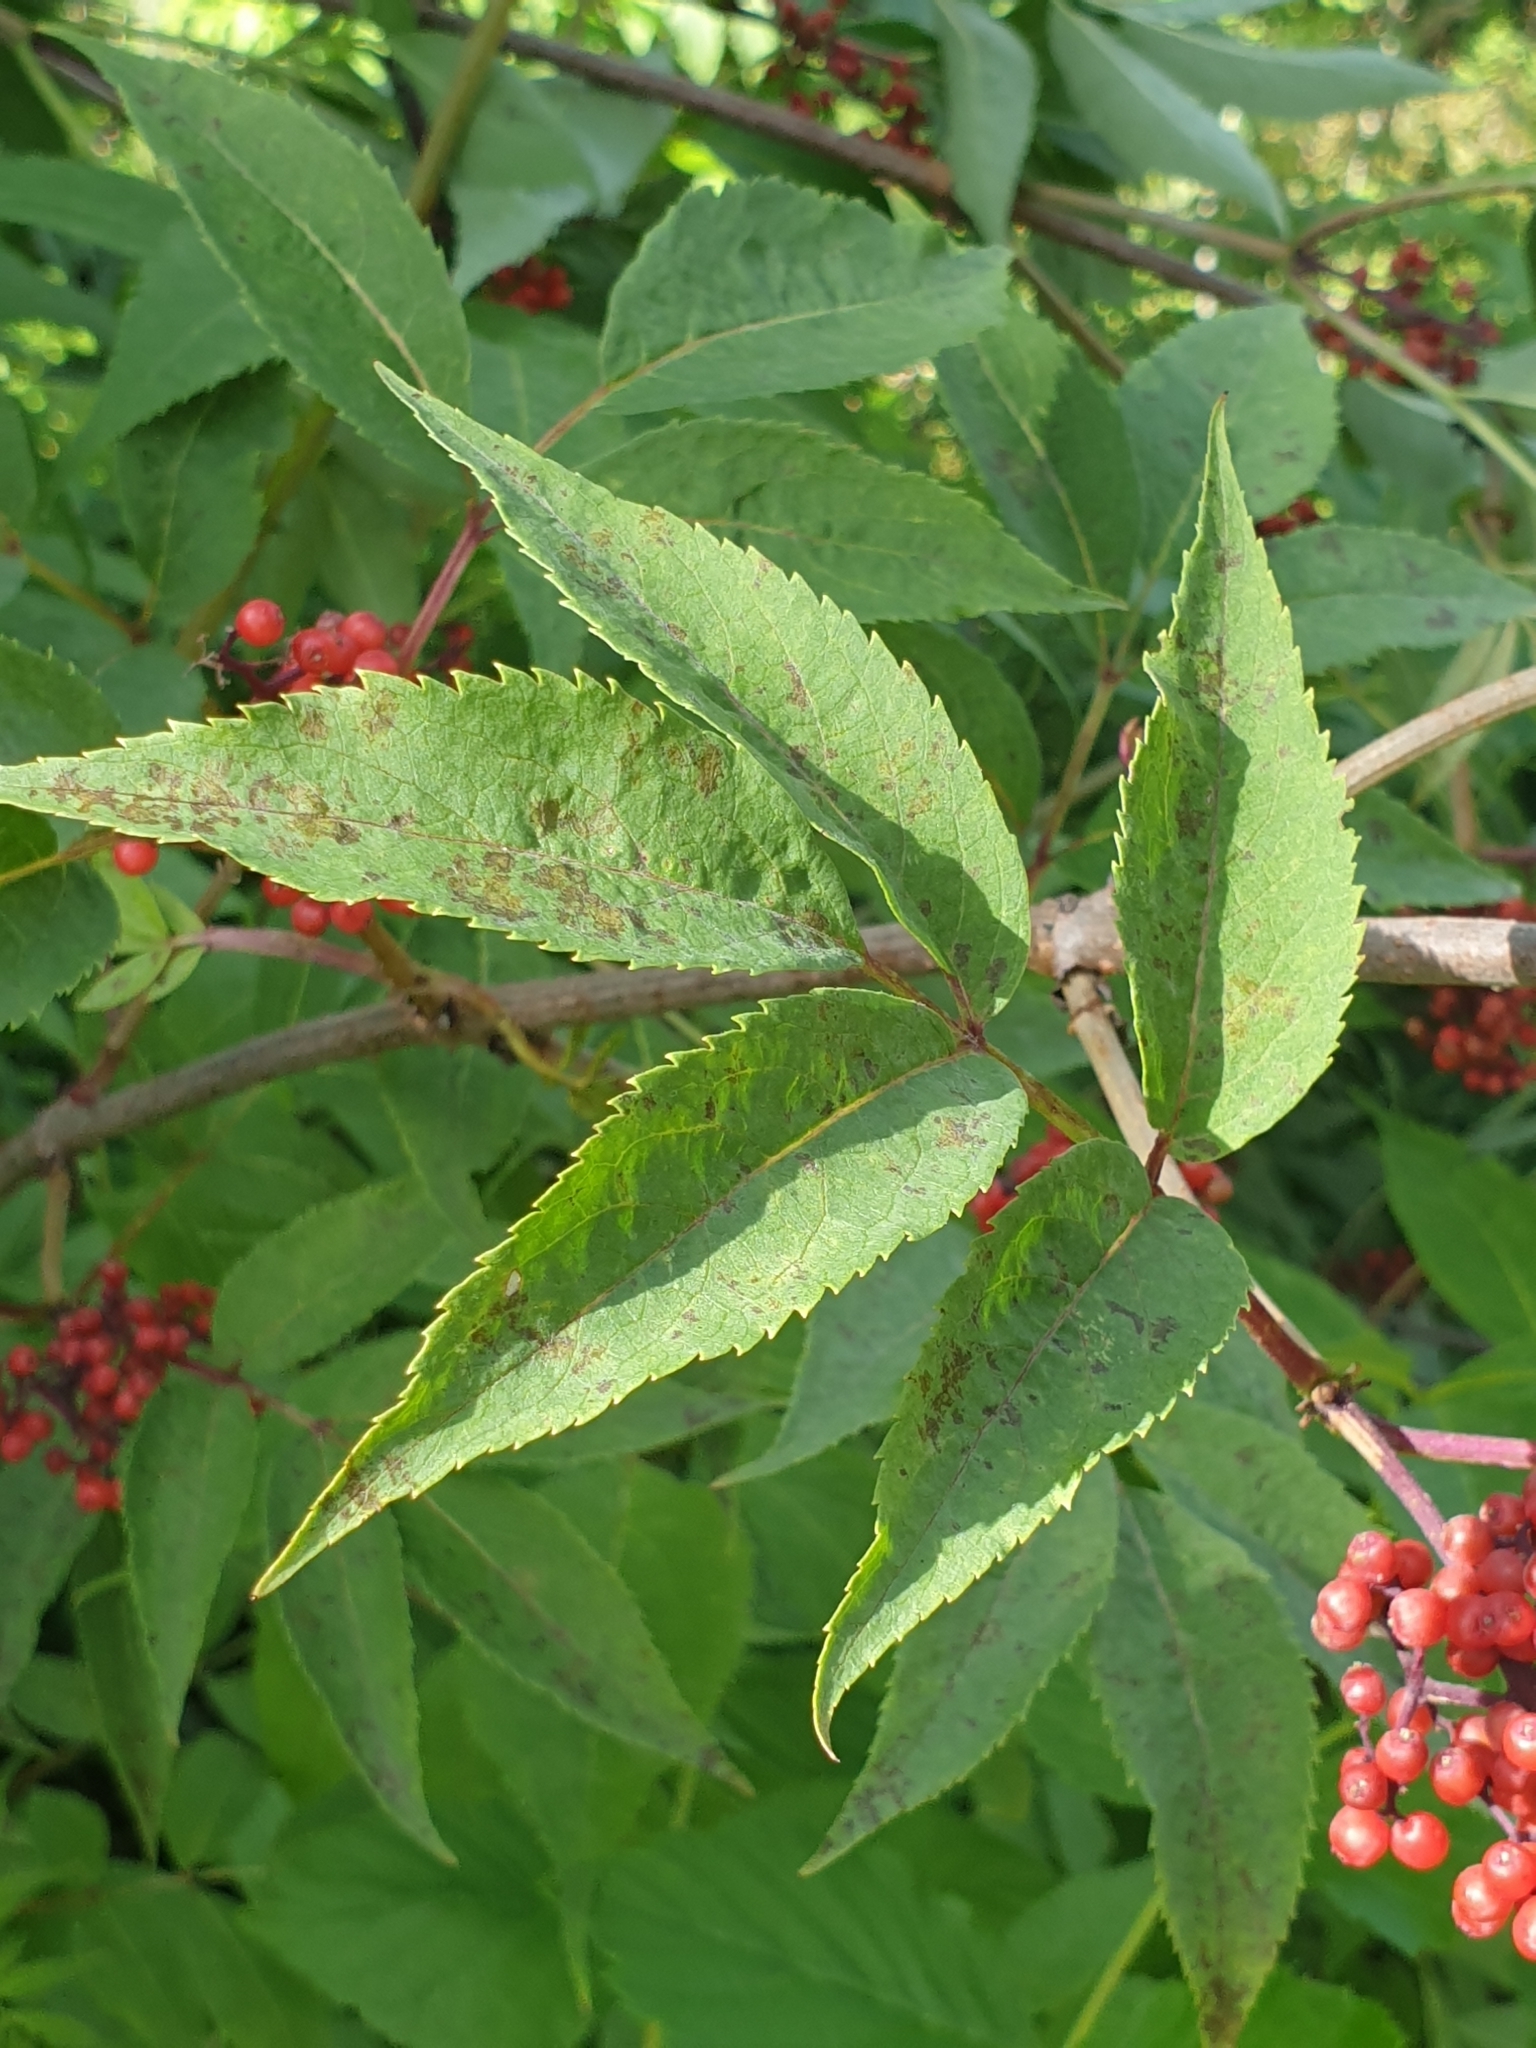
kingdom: Plantae
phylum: Tracheophyta
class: Magnoliopsida
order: Dipsacales
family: Viburnaceae
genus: Sambucus
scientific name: Sambucus racemosa
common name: Red-berried elder
